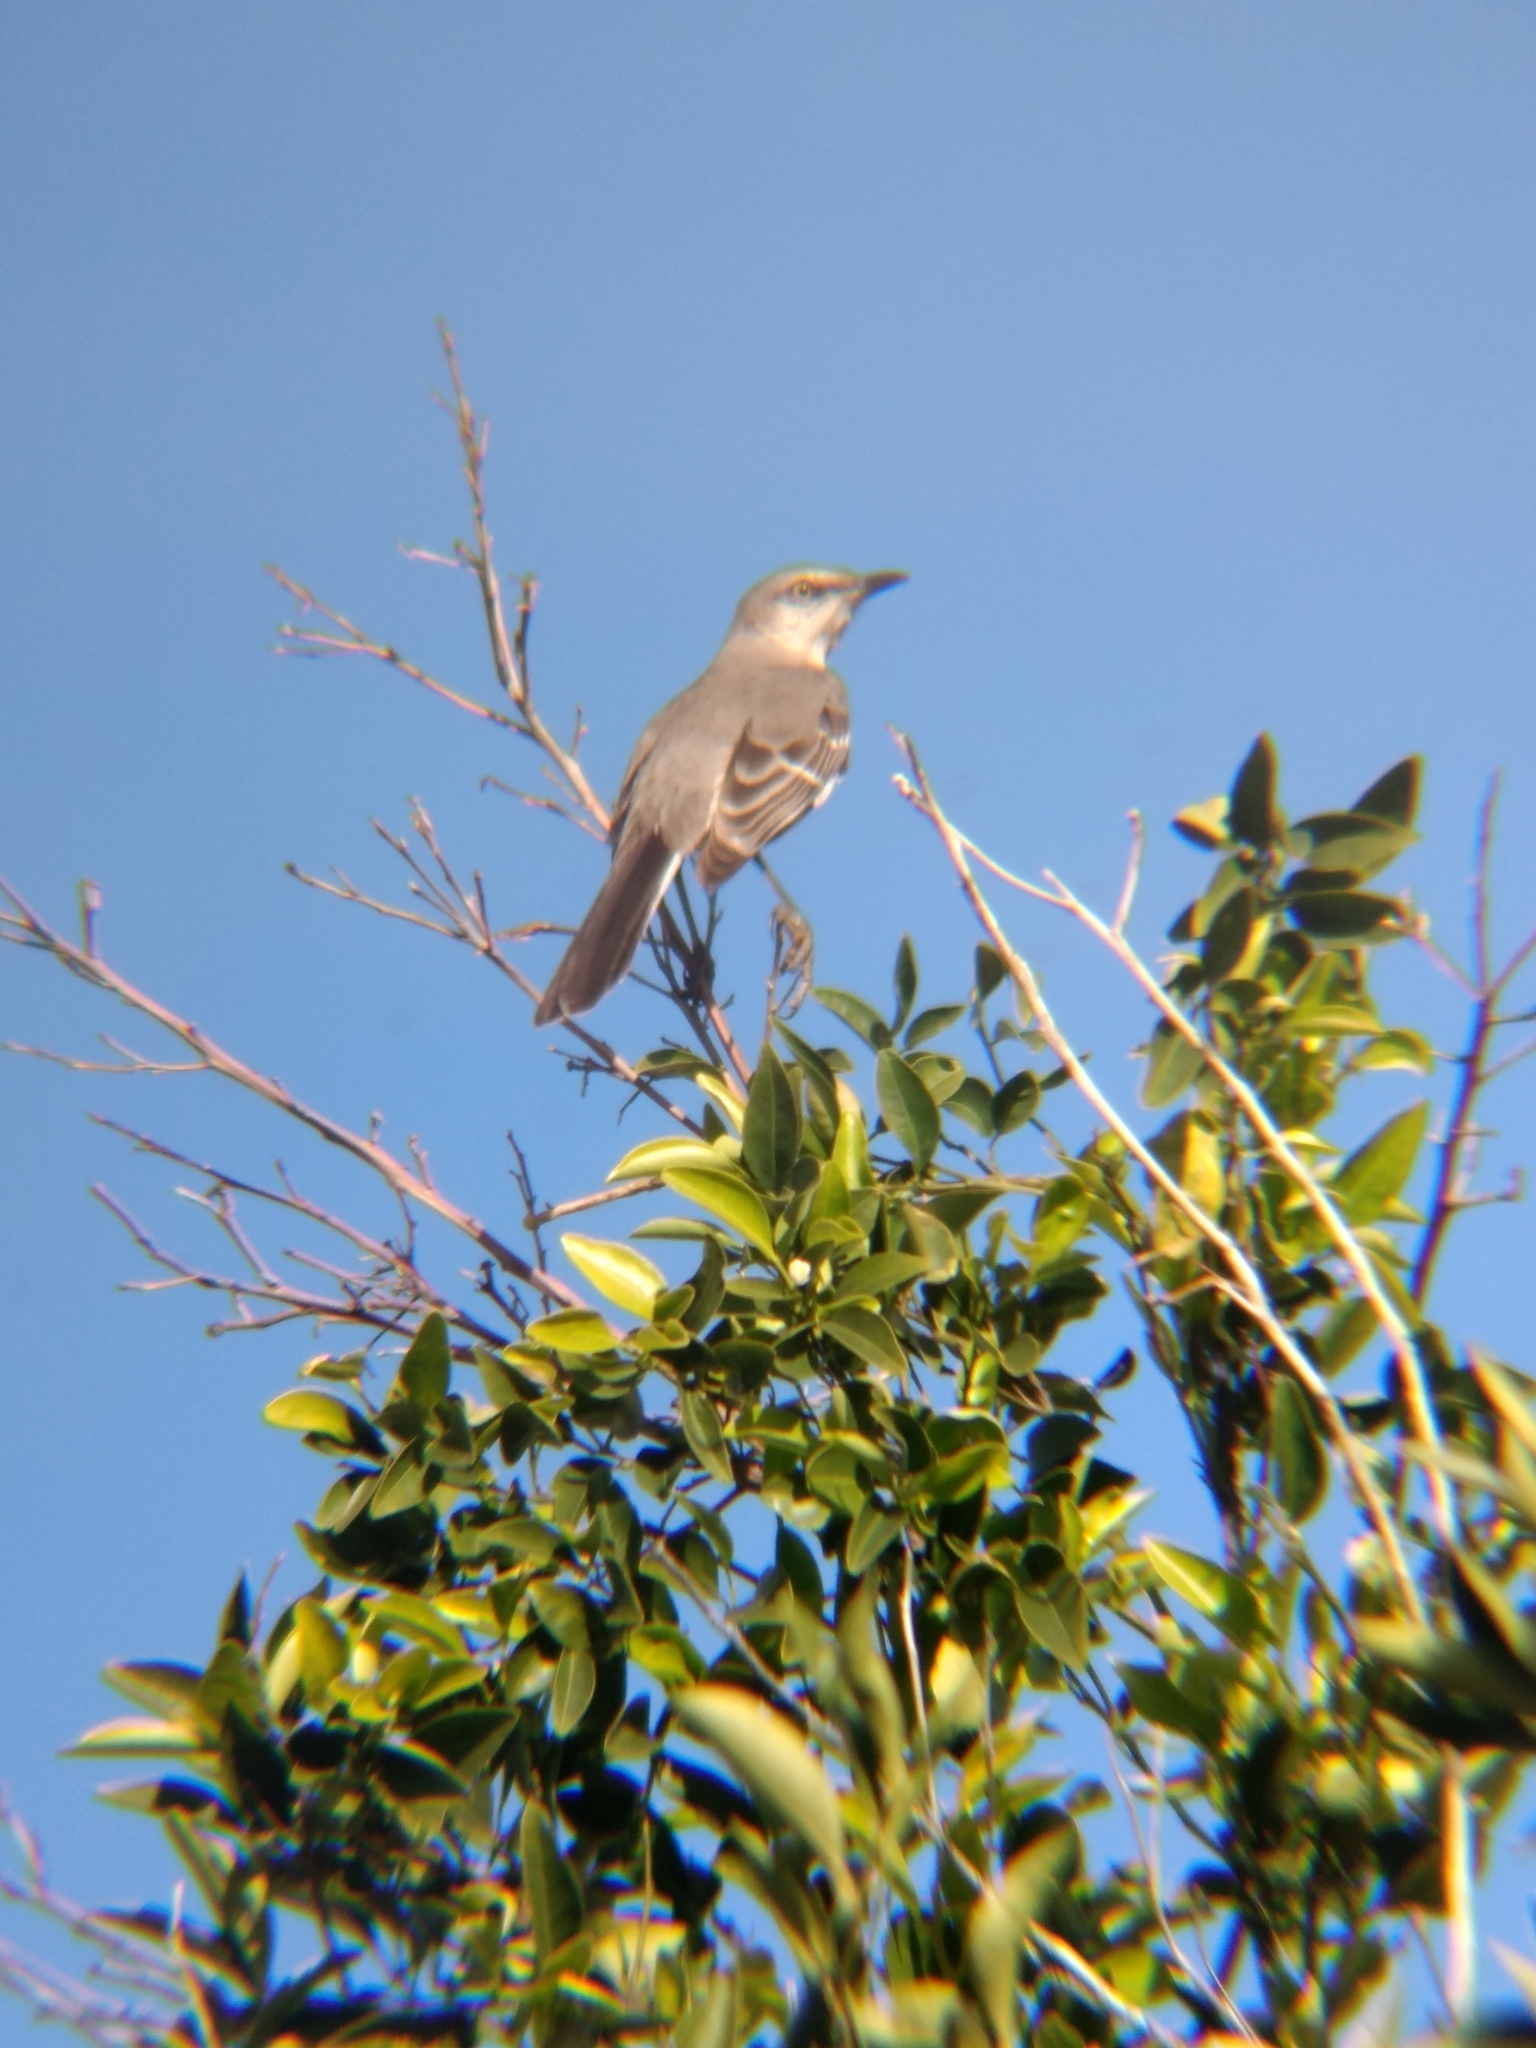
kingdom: Animalia
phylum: Chordata
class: Aves
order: Passeriformes
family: Mimidae
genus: Mimus
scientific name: Mimus polyglottos
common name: Northern mockingbird
